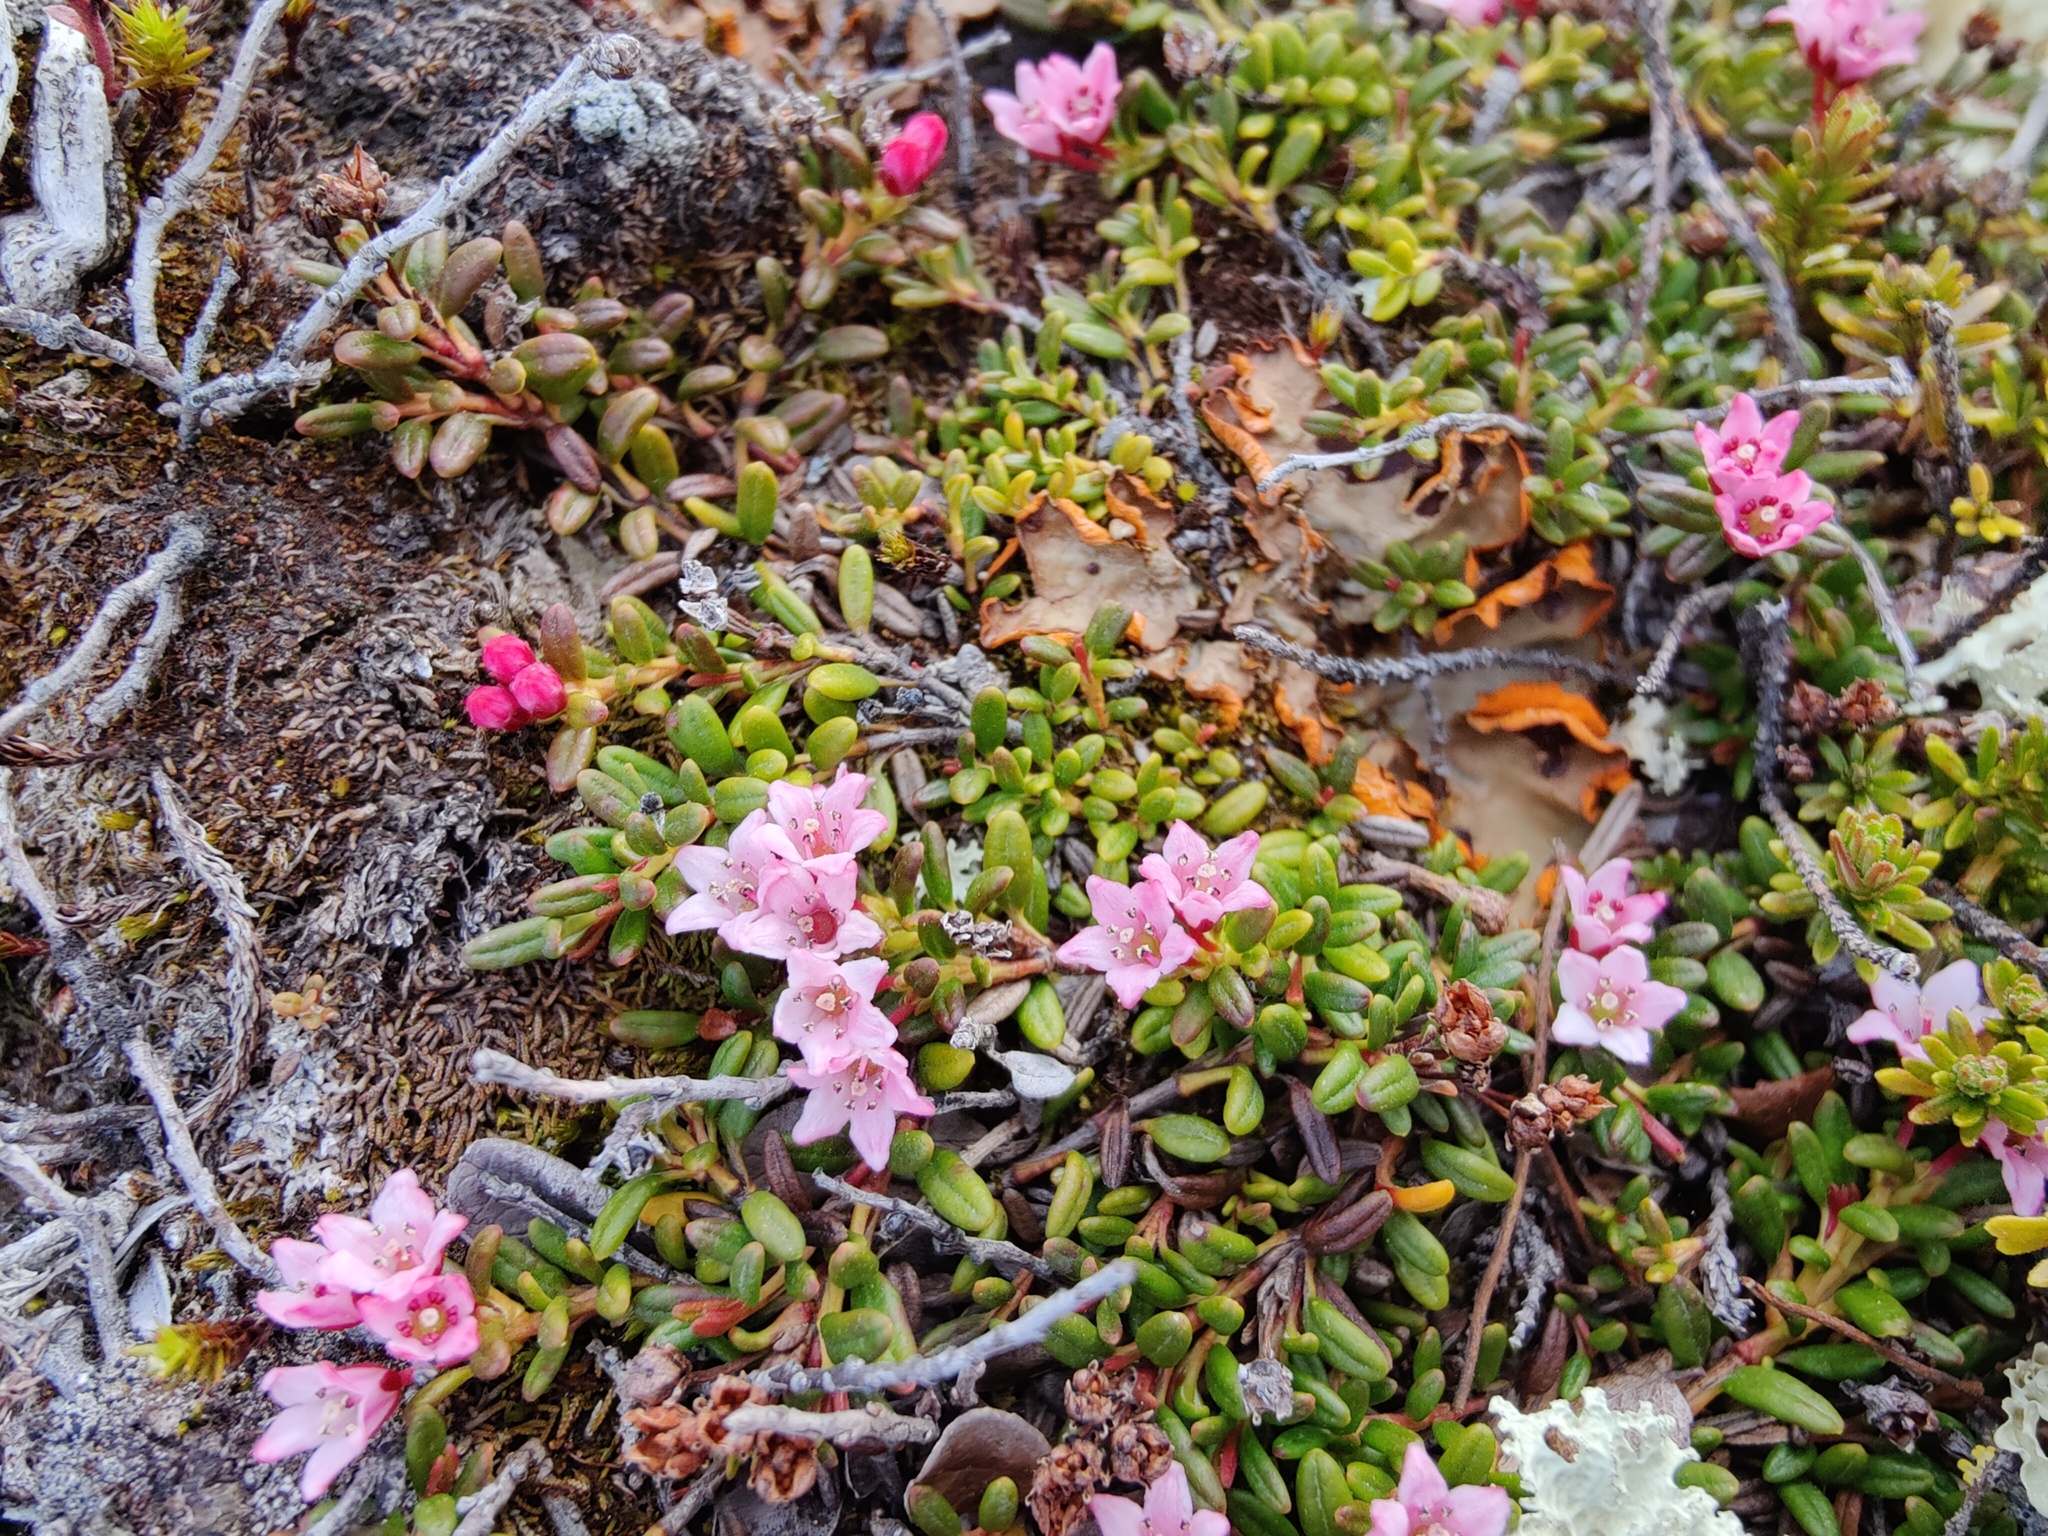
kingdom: Plantae
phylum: Tracheophyta
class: Magnoliopsida
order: Ericales
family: Ericaceae
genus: Kalmia
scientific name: Kalmia procumbens
